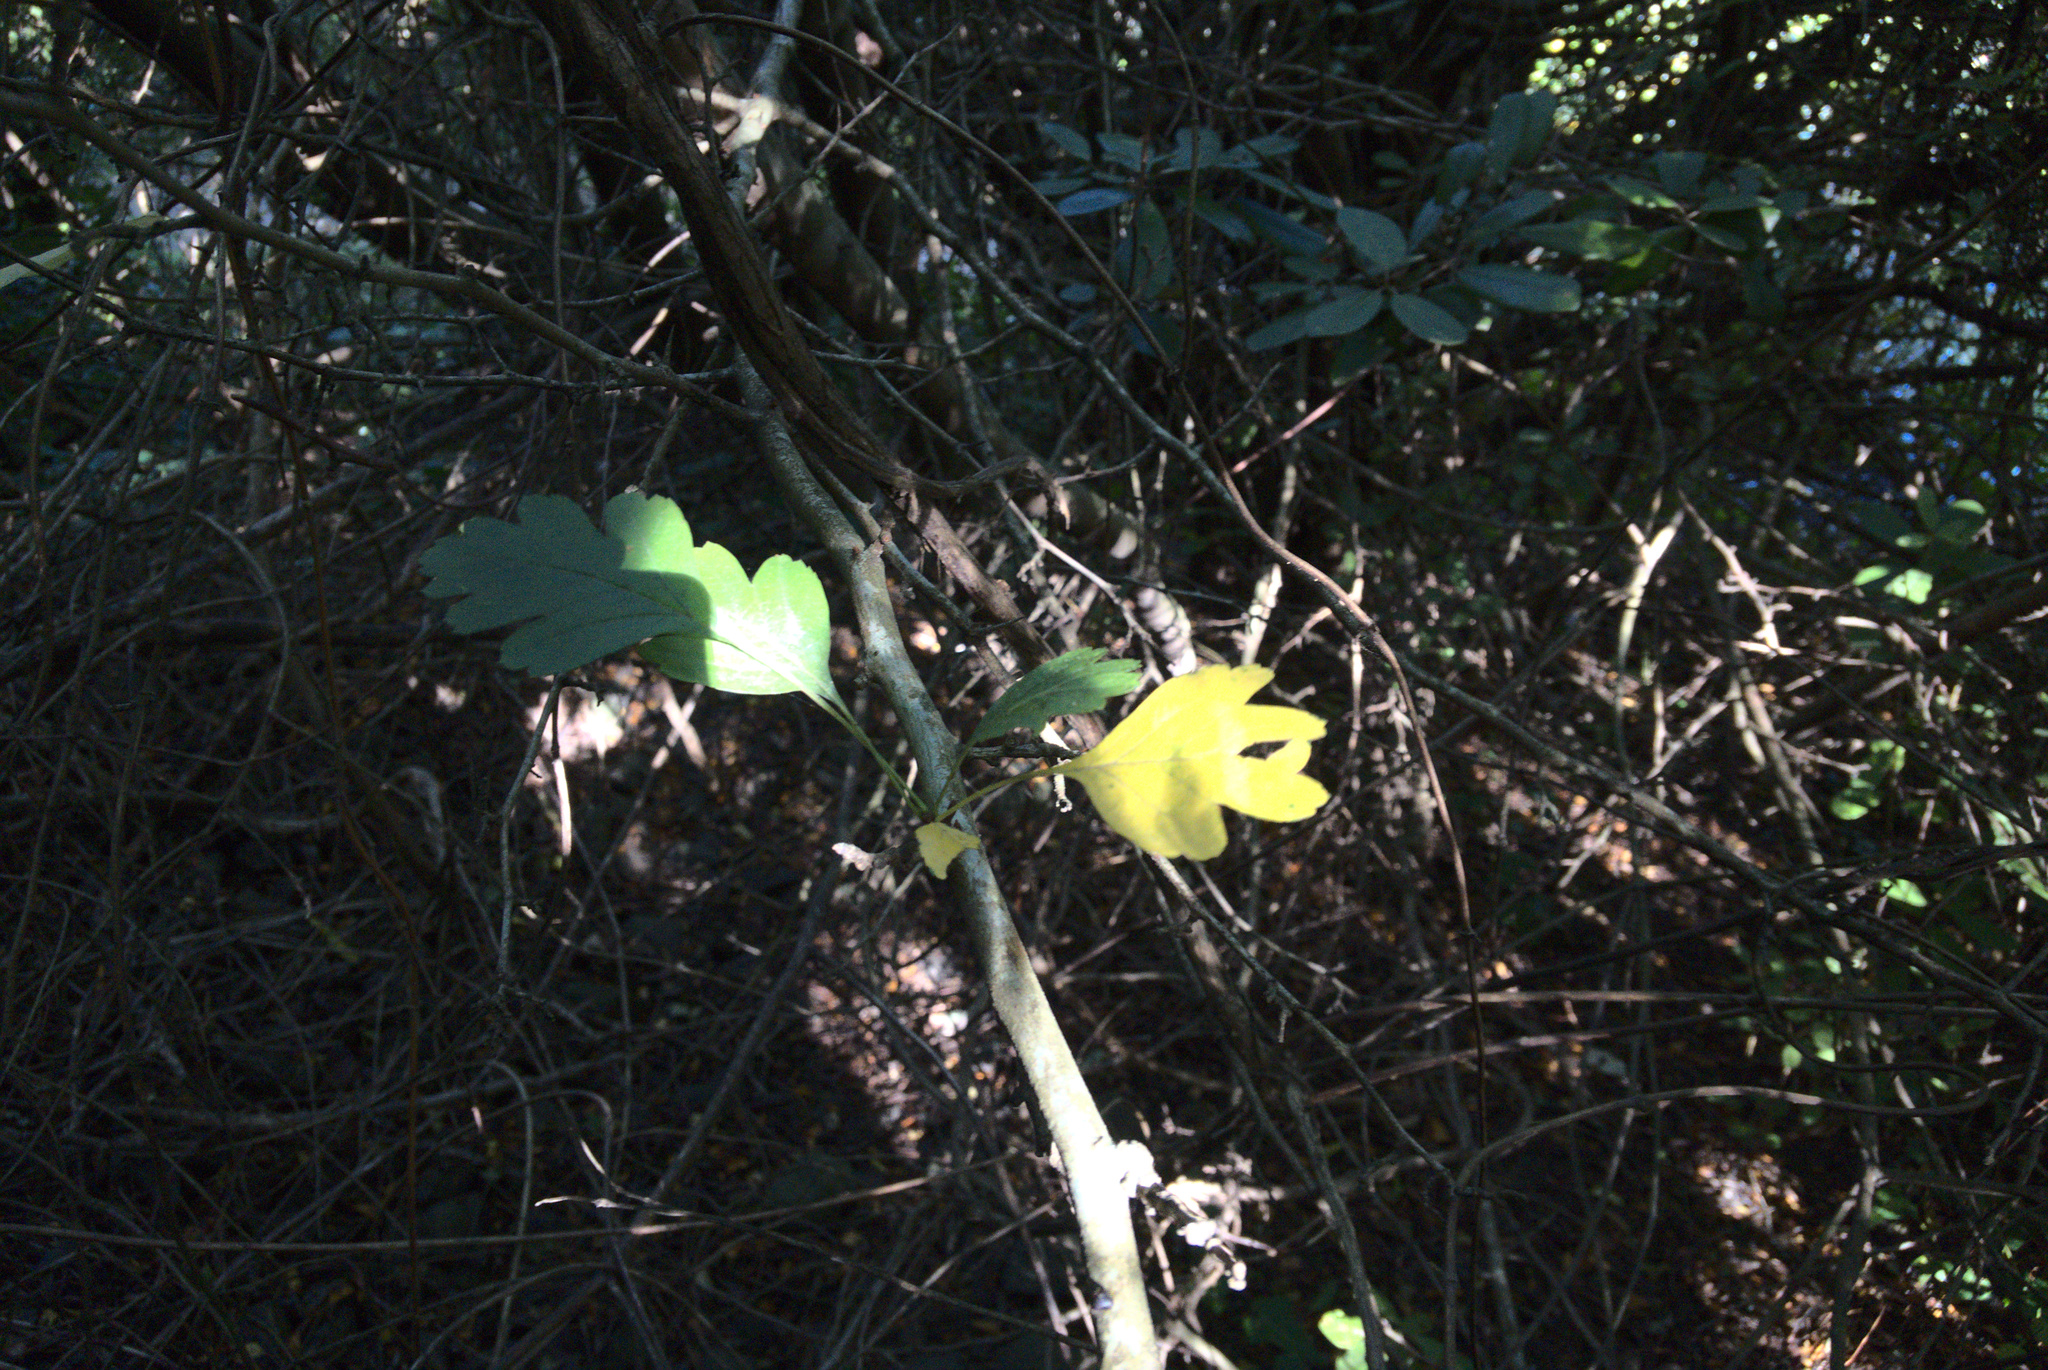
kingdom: Plantae
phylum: Tracheophyta
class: Magnoliopsida
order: Rosales
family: Rosaceae
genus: Crataegus
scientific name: Crataegus monogyna
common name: Hawthorn
